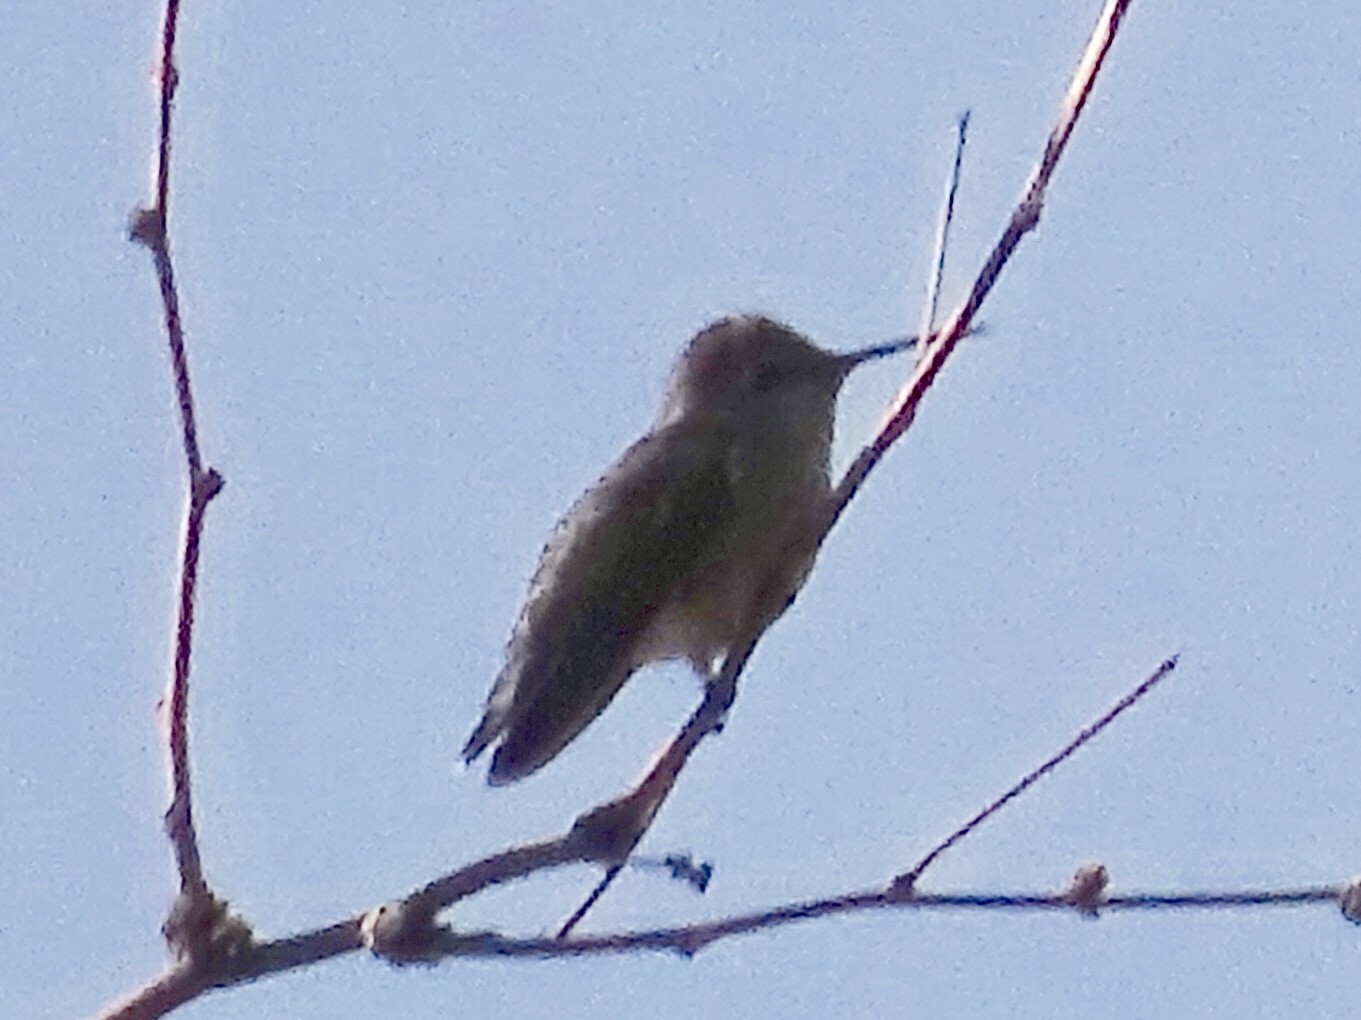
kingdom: Animalia
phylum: Chordata
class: Aves
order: Apodiformes
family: Trochilidae
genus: Calypte
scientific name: Calypte anna
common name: Anna's hummingbird
